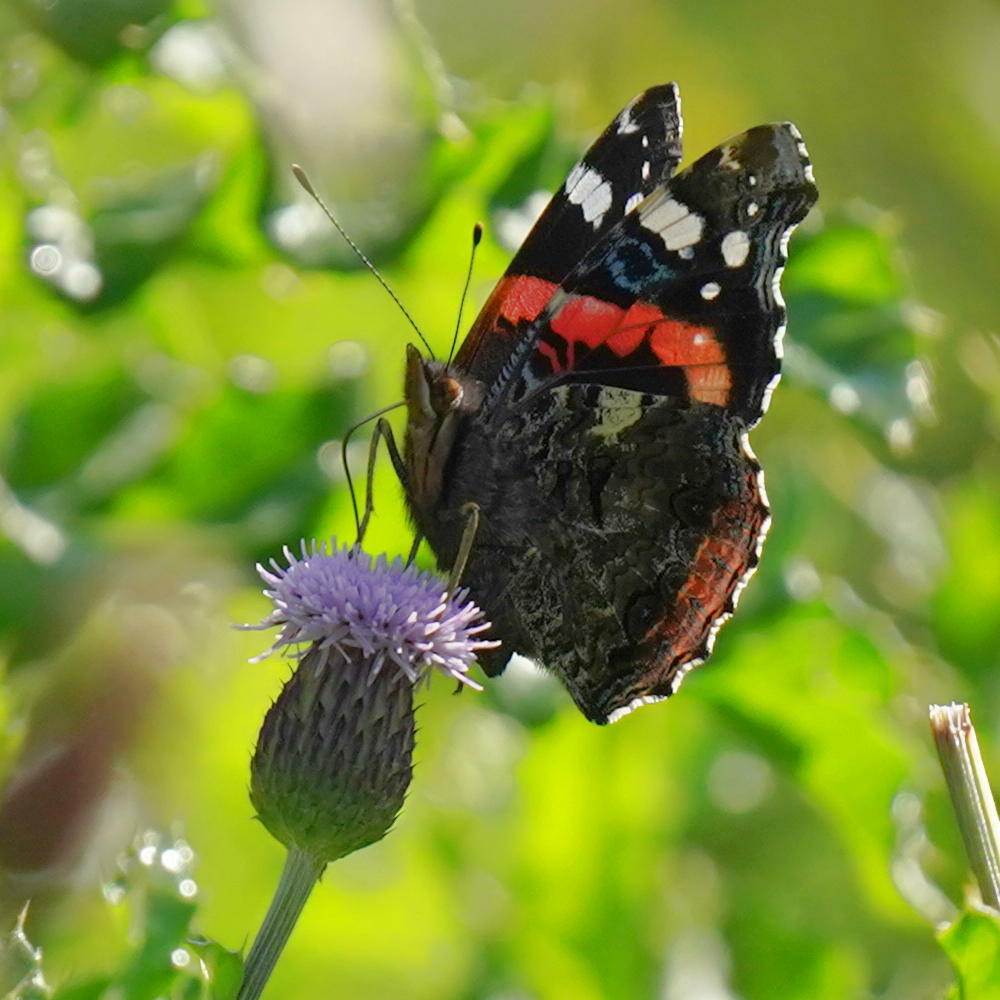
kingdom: Animalia
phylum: Arthropoda
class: Insecta
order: Lepidoptera
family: Nymphalidae
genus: Vanessa
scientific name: Vanessa atalanta
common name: Red admiral
